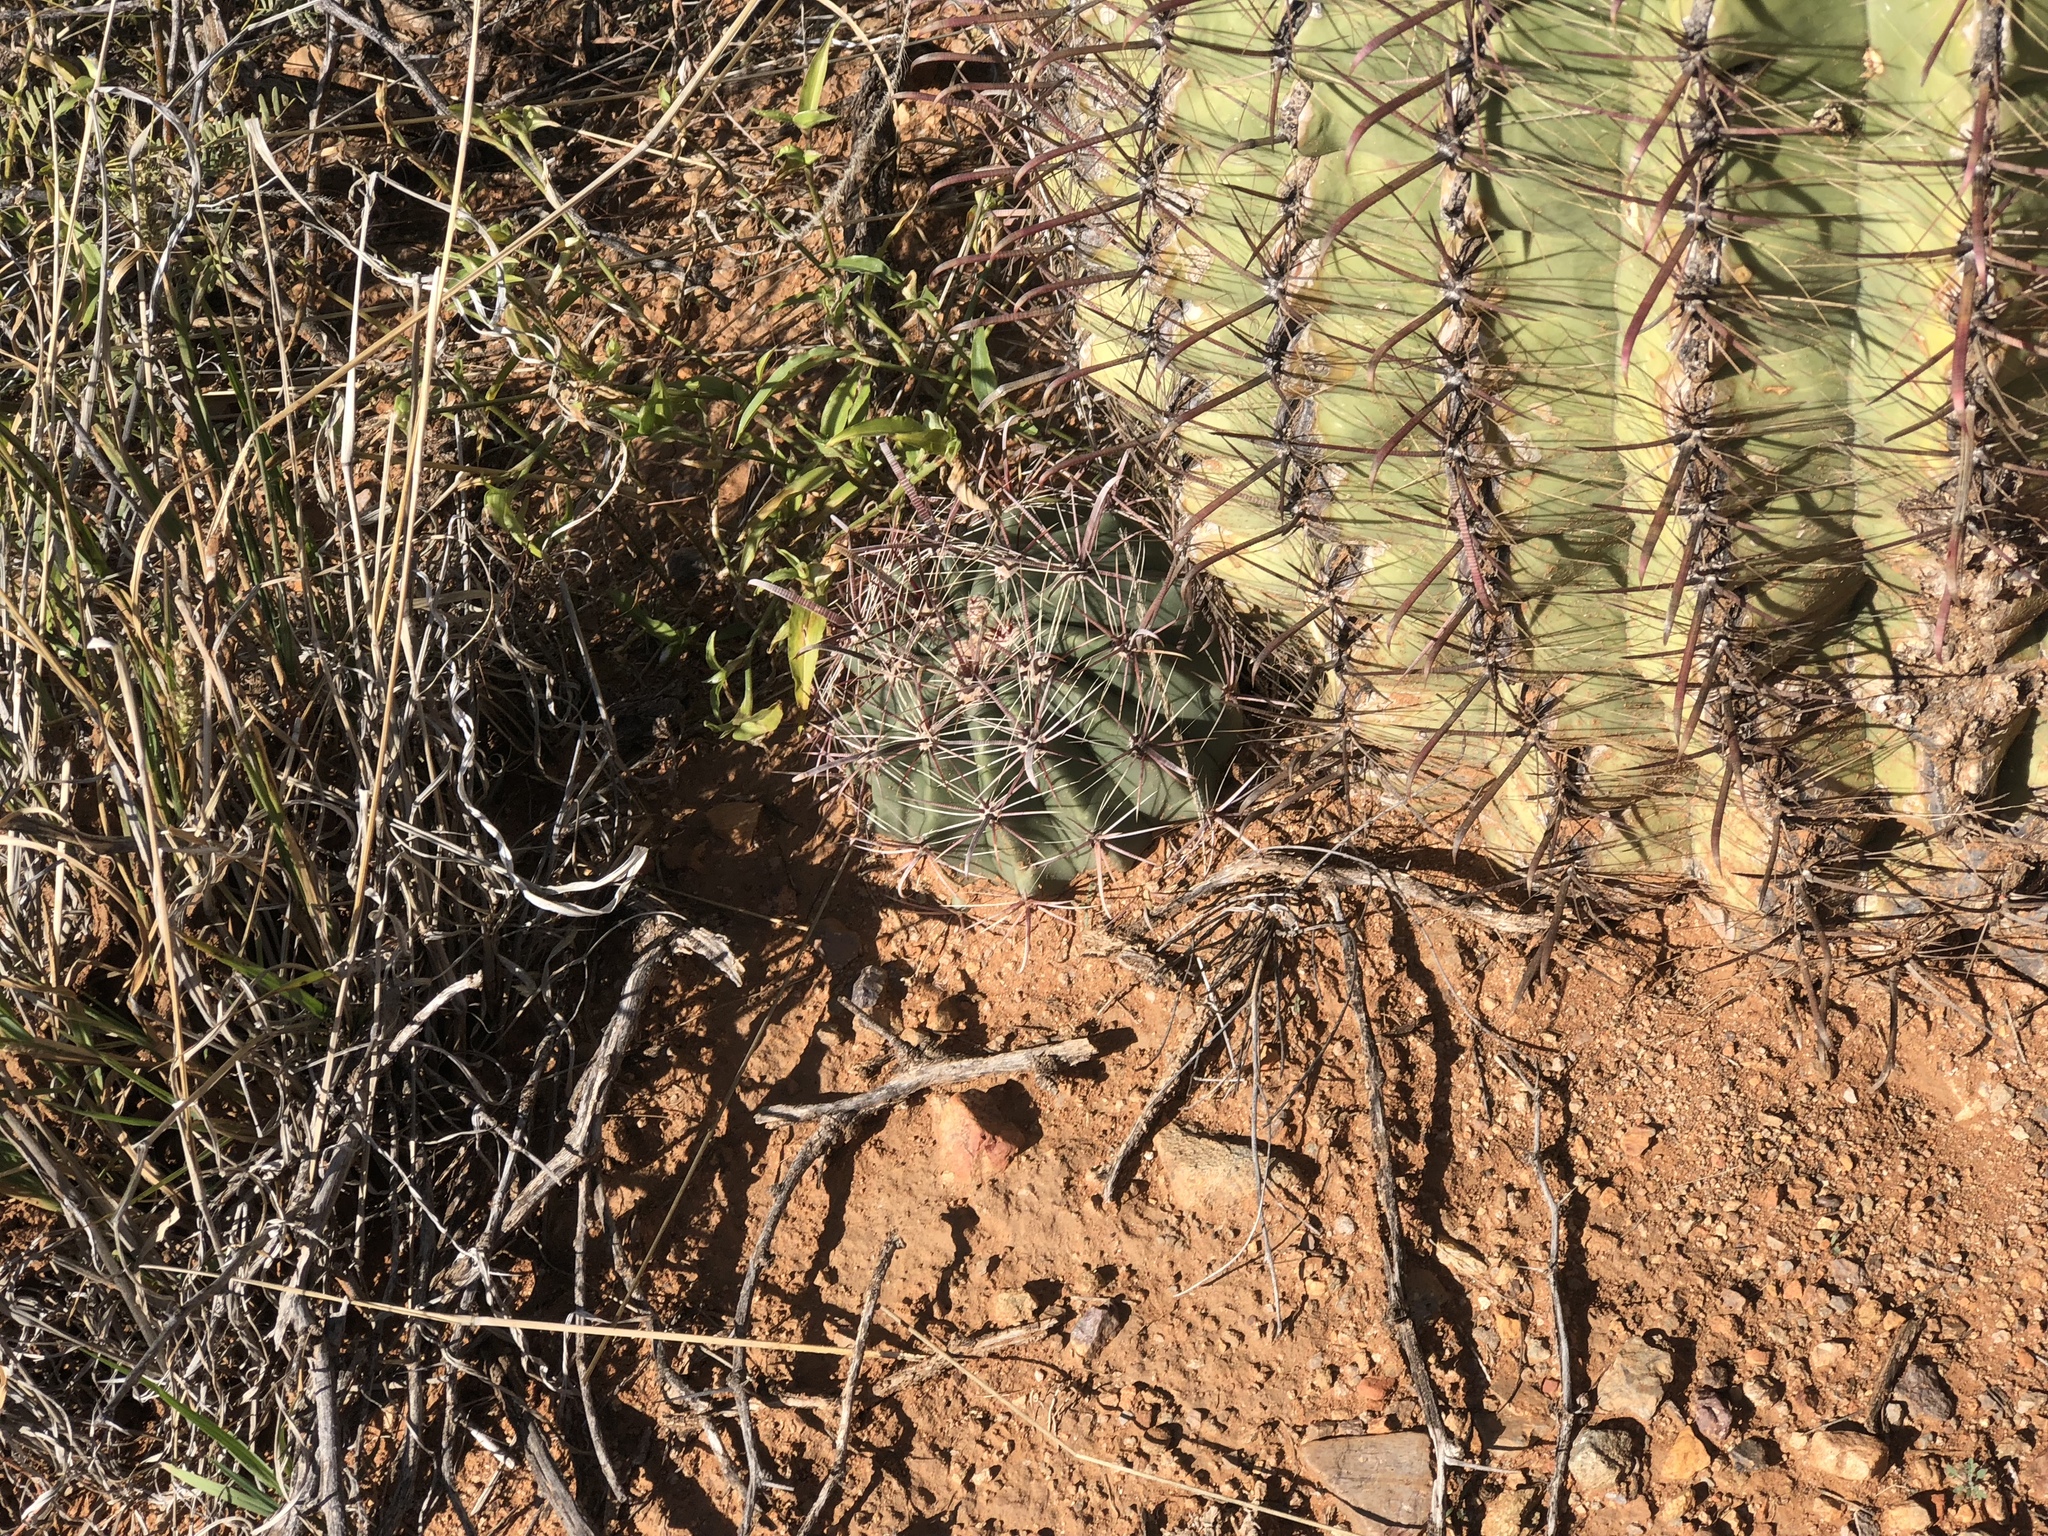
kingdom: Plantae
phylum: Tracheophyta
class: Magnoliopsida
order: Caryophyllales
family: Cactaceae
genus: Ferocactus
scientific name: Ferocactus wislizeni
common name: Candy barrel cactus
